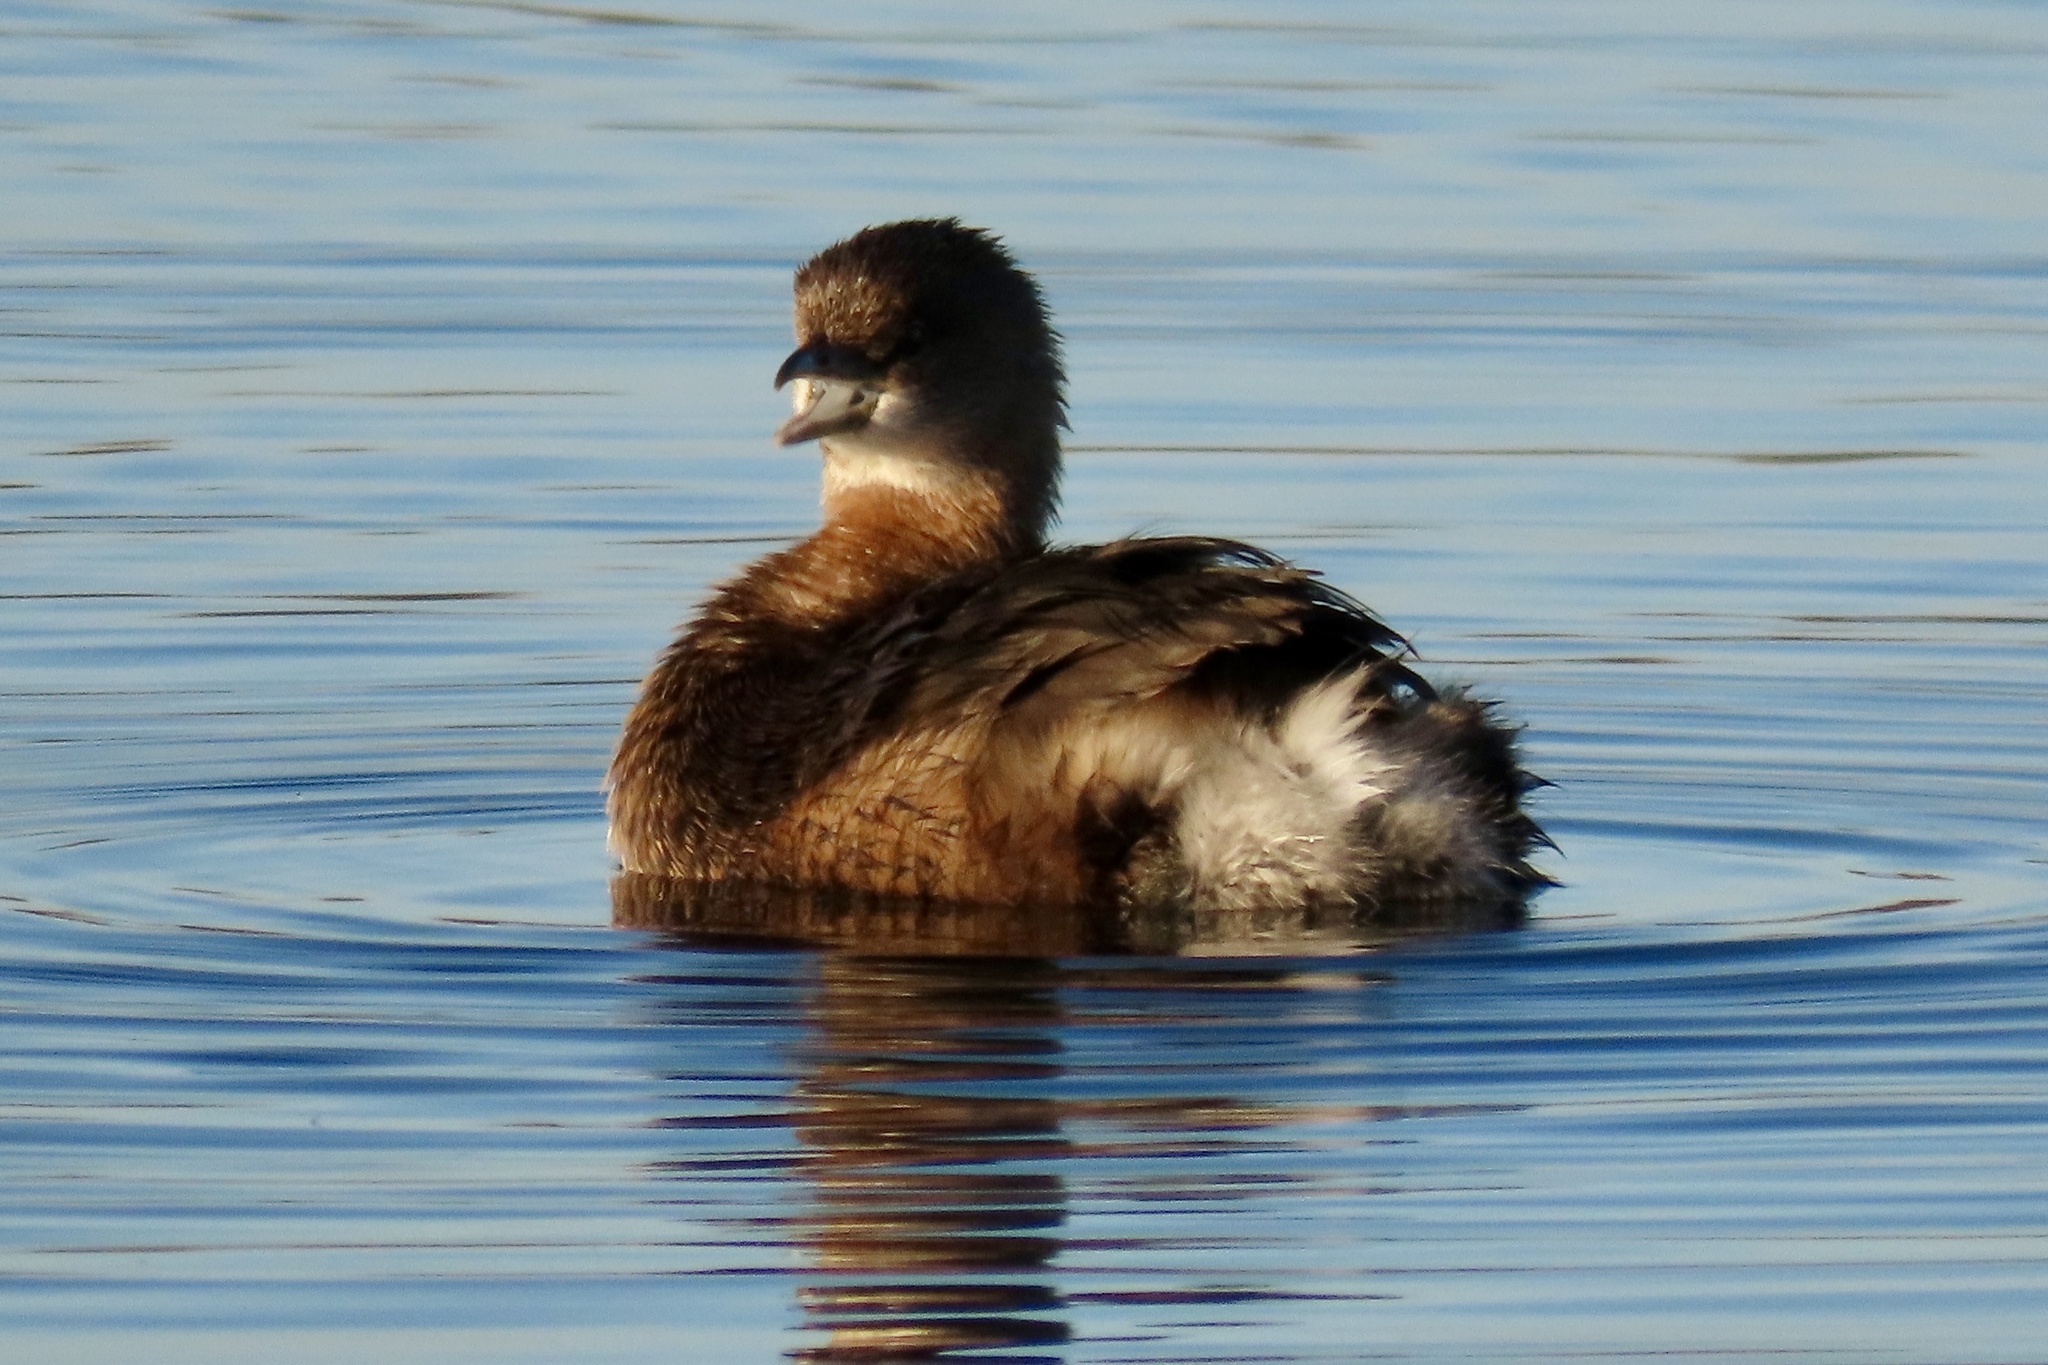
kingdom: Animalia
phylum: Chordata
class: Aves
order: Podicipediformes
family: Podicipedidae
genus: Podilymbus
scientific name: Podilymbus podiceps
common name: Pied-billed grebe
